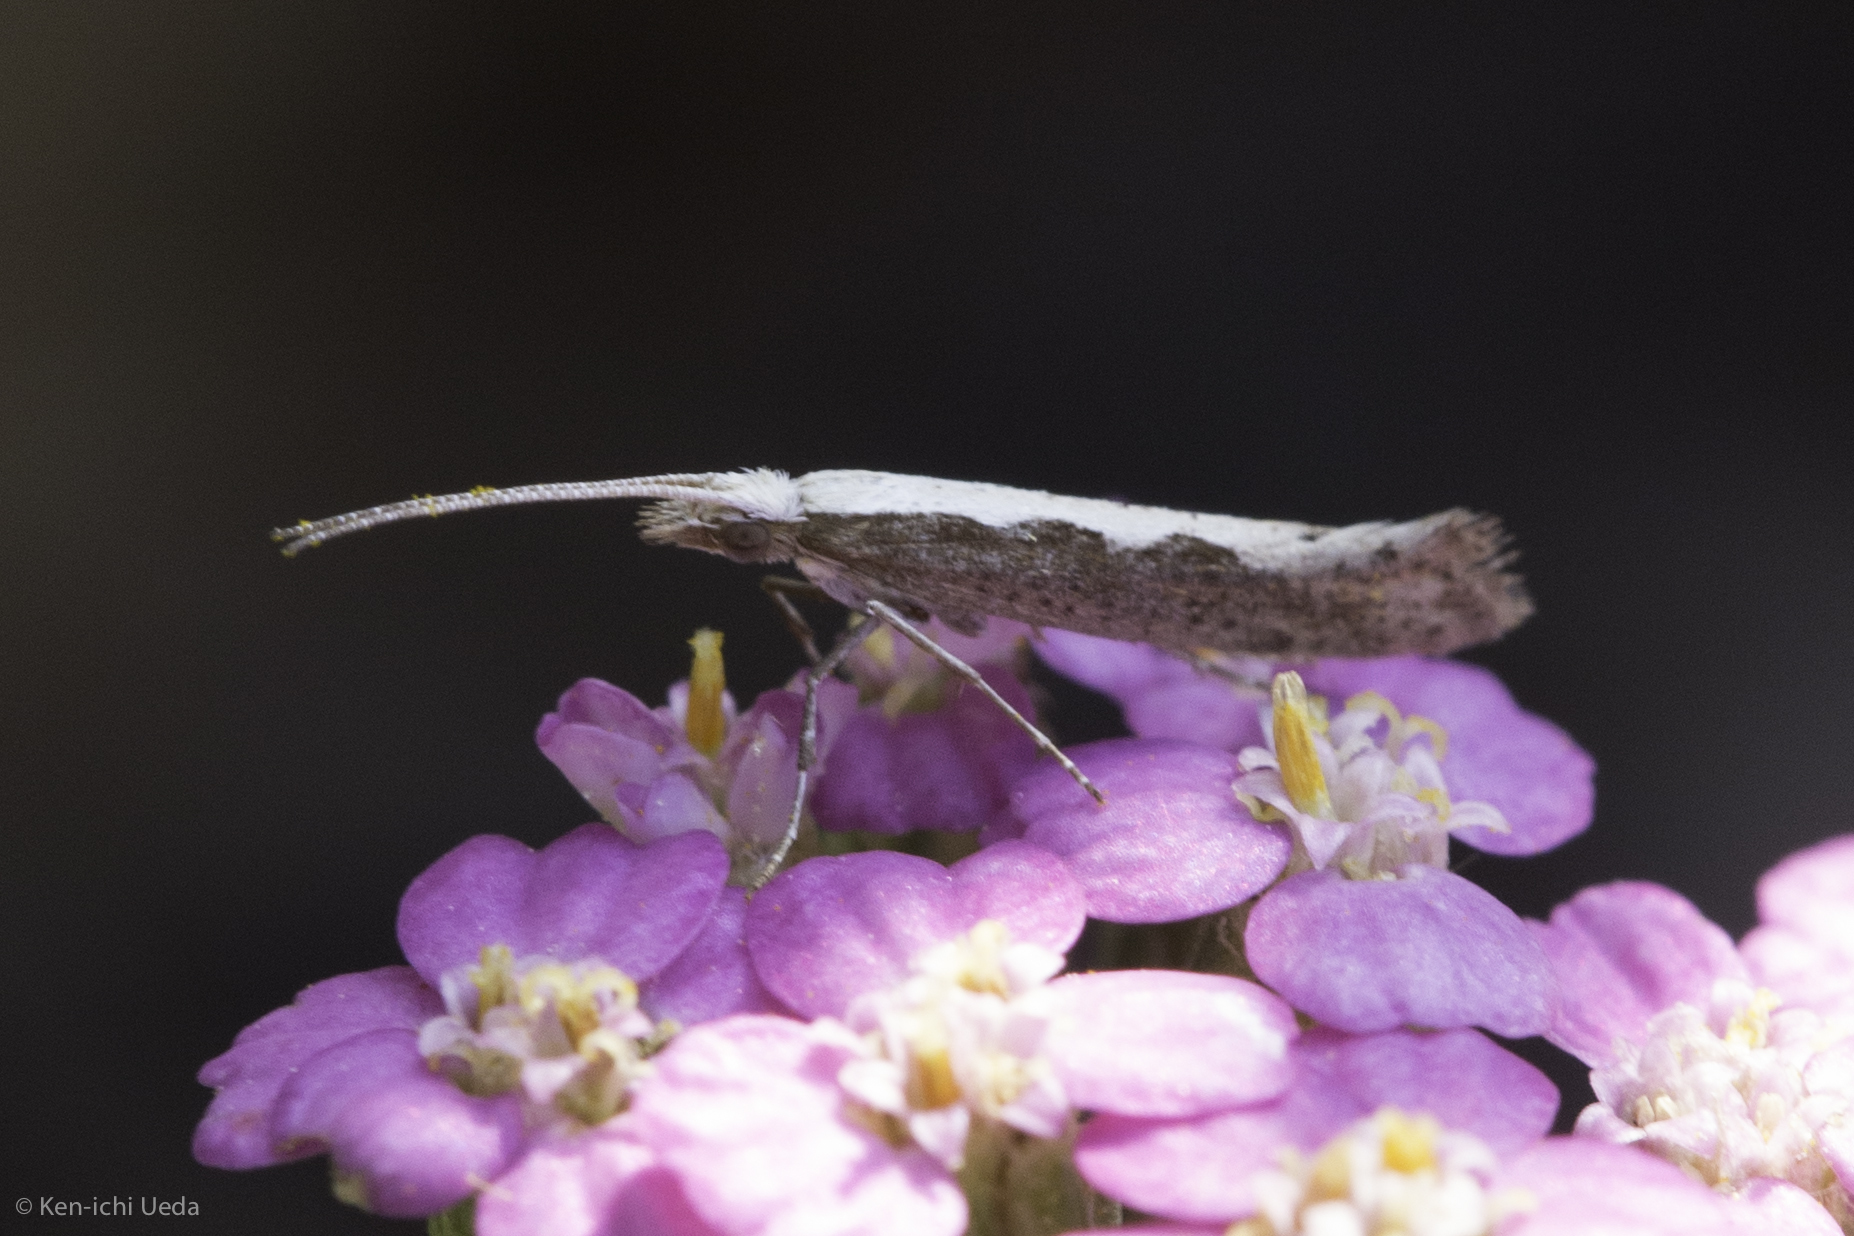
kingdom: Animalia
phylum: Arthropoda
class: Insecta
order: Lepidoptera
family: Plutellidae
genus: Plutella
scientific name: Plutella xylostella
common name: Diamond-back moth
